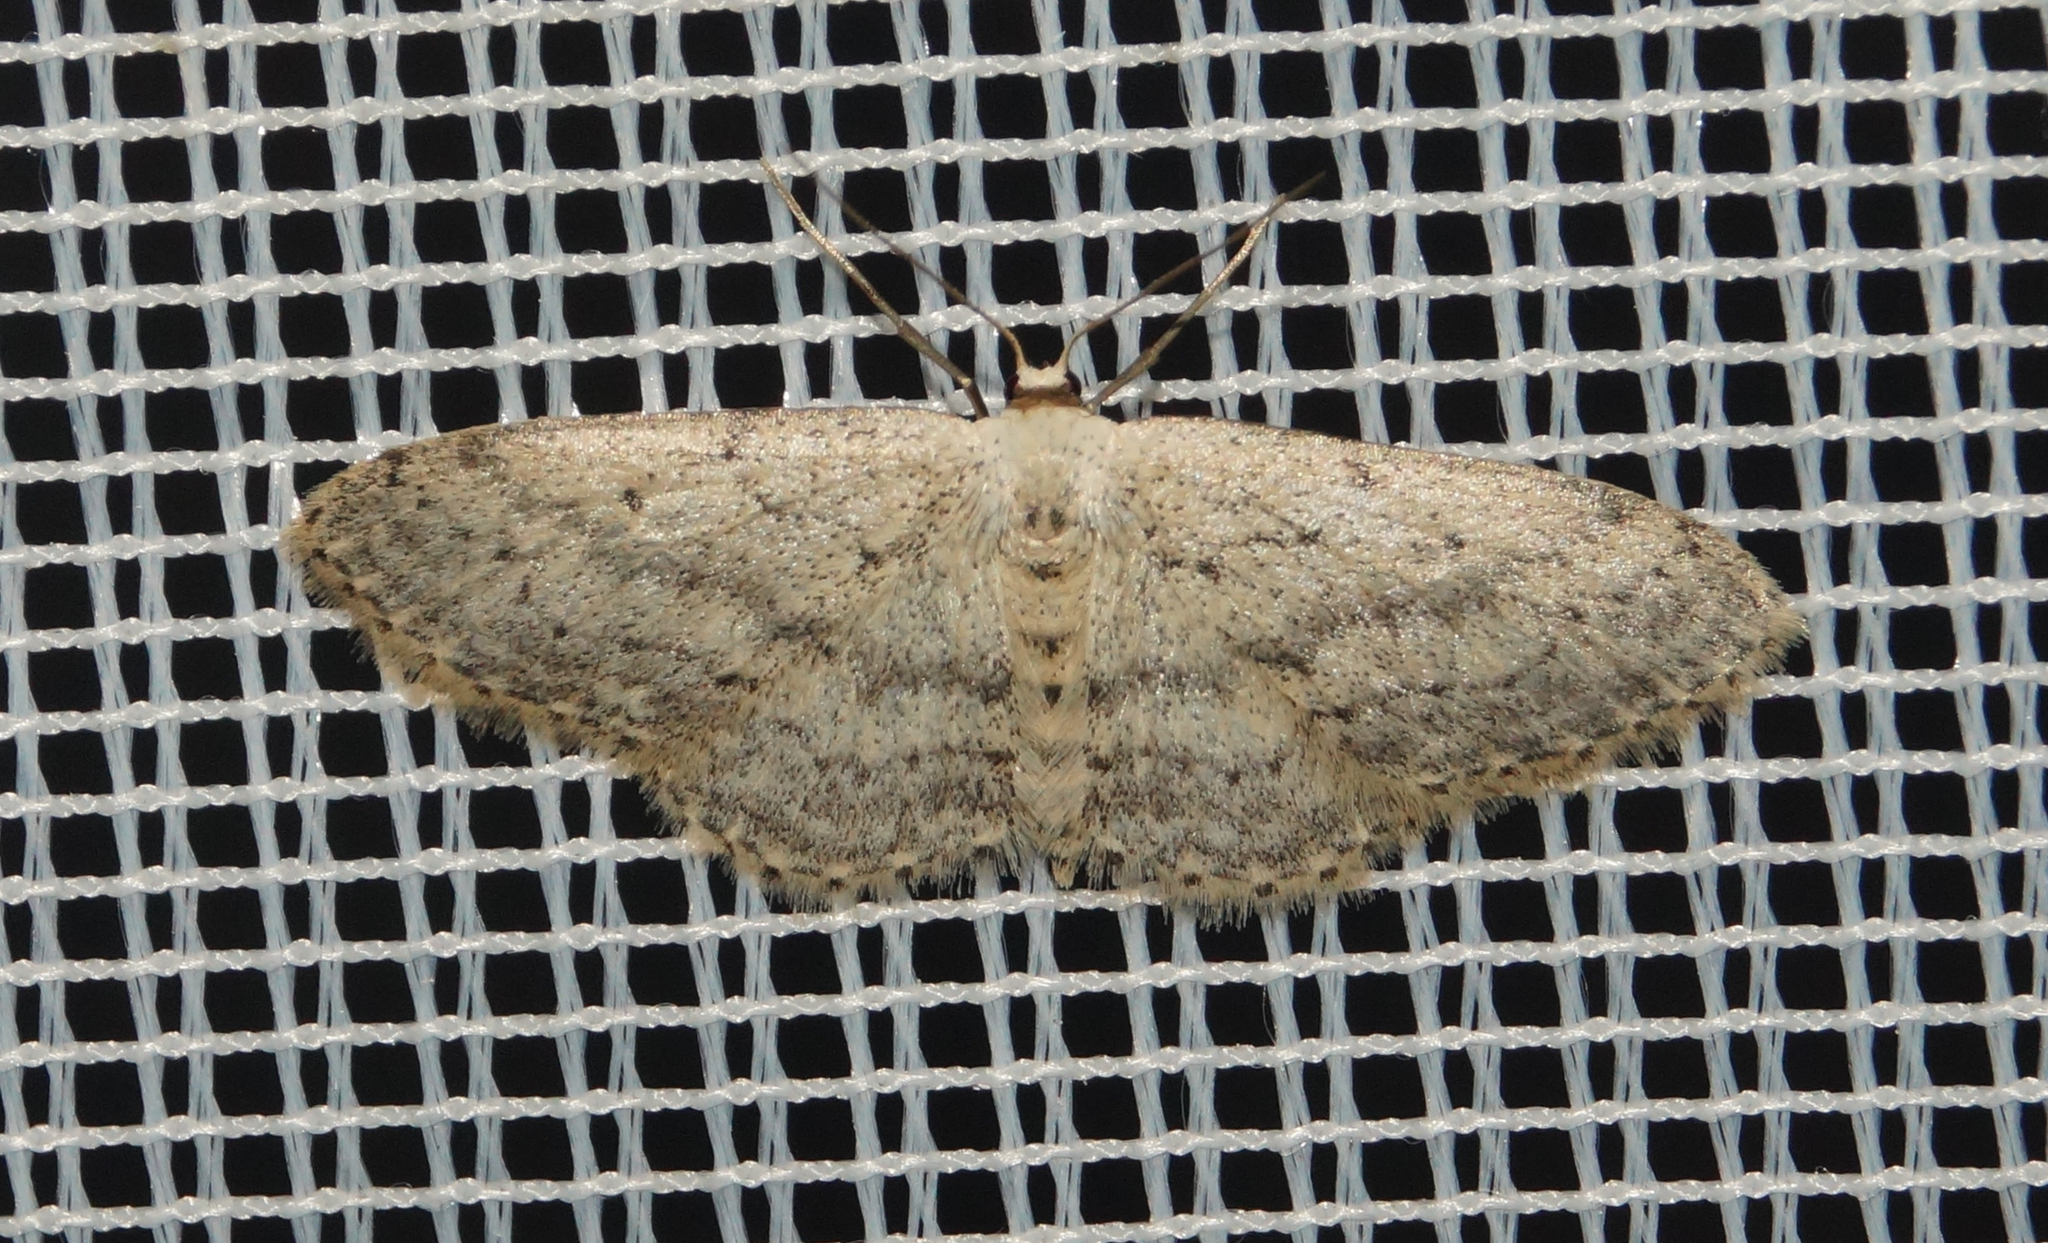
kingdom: Animalia
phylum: Arthropoda
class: Insecta
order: Lepidoptera
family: Geometridae
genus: Idaea
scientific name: Idaea seriata
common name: Small dusty wave
